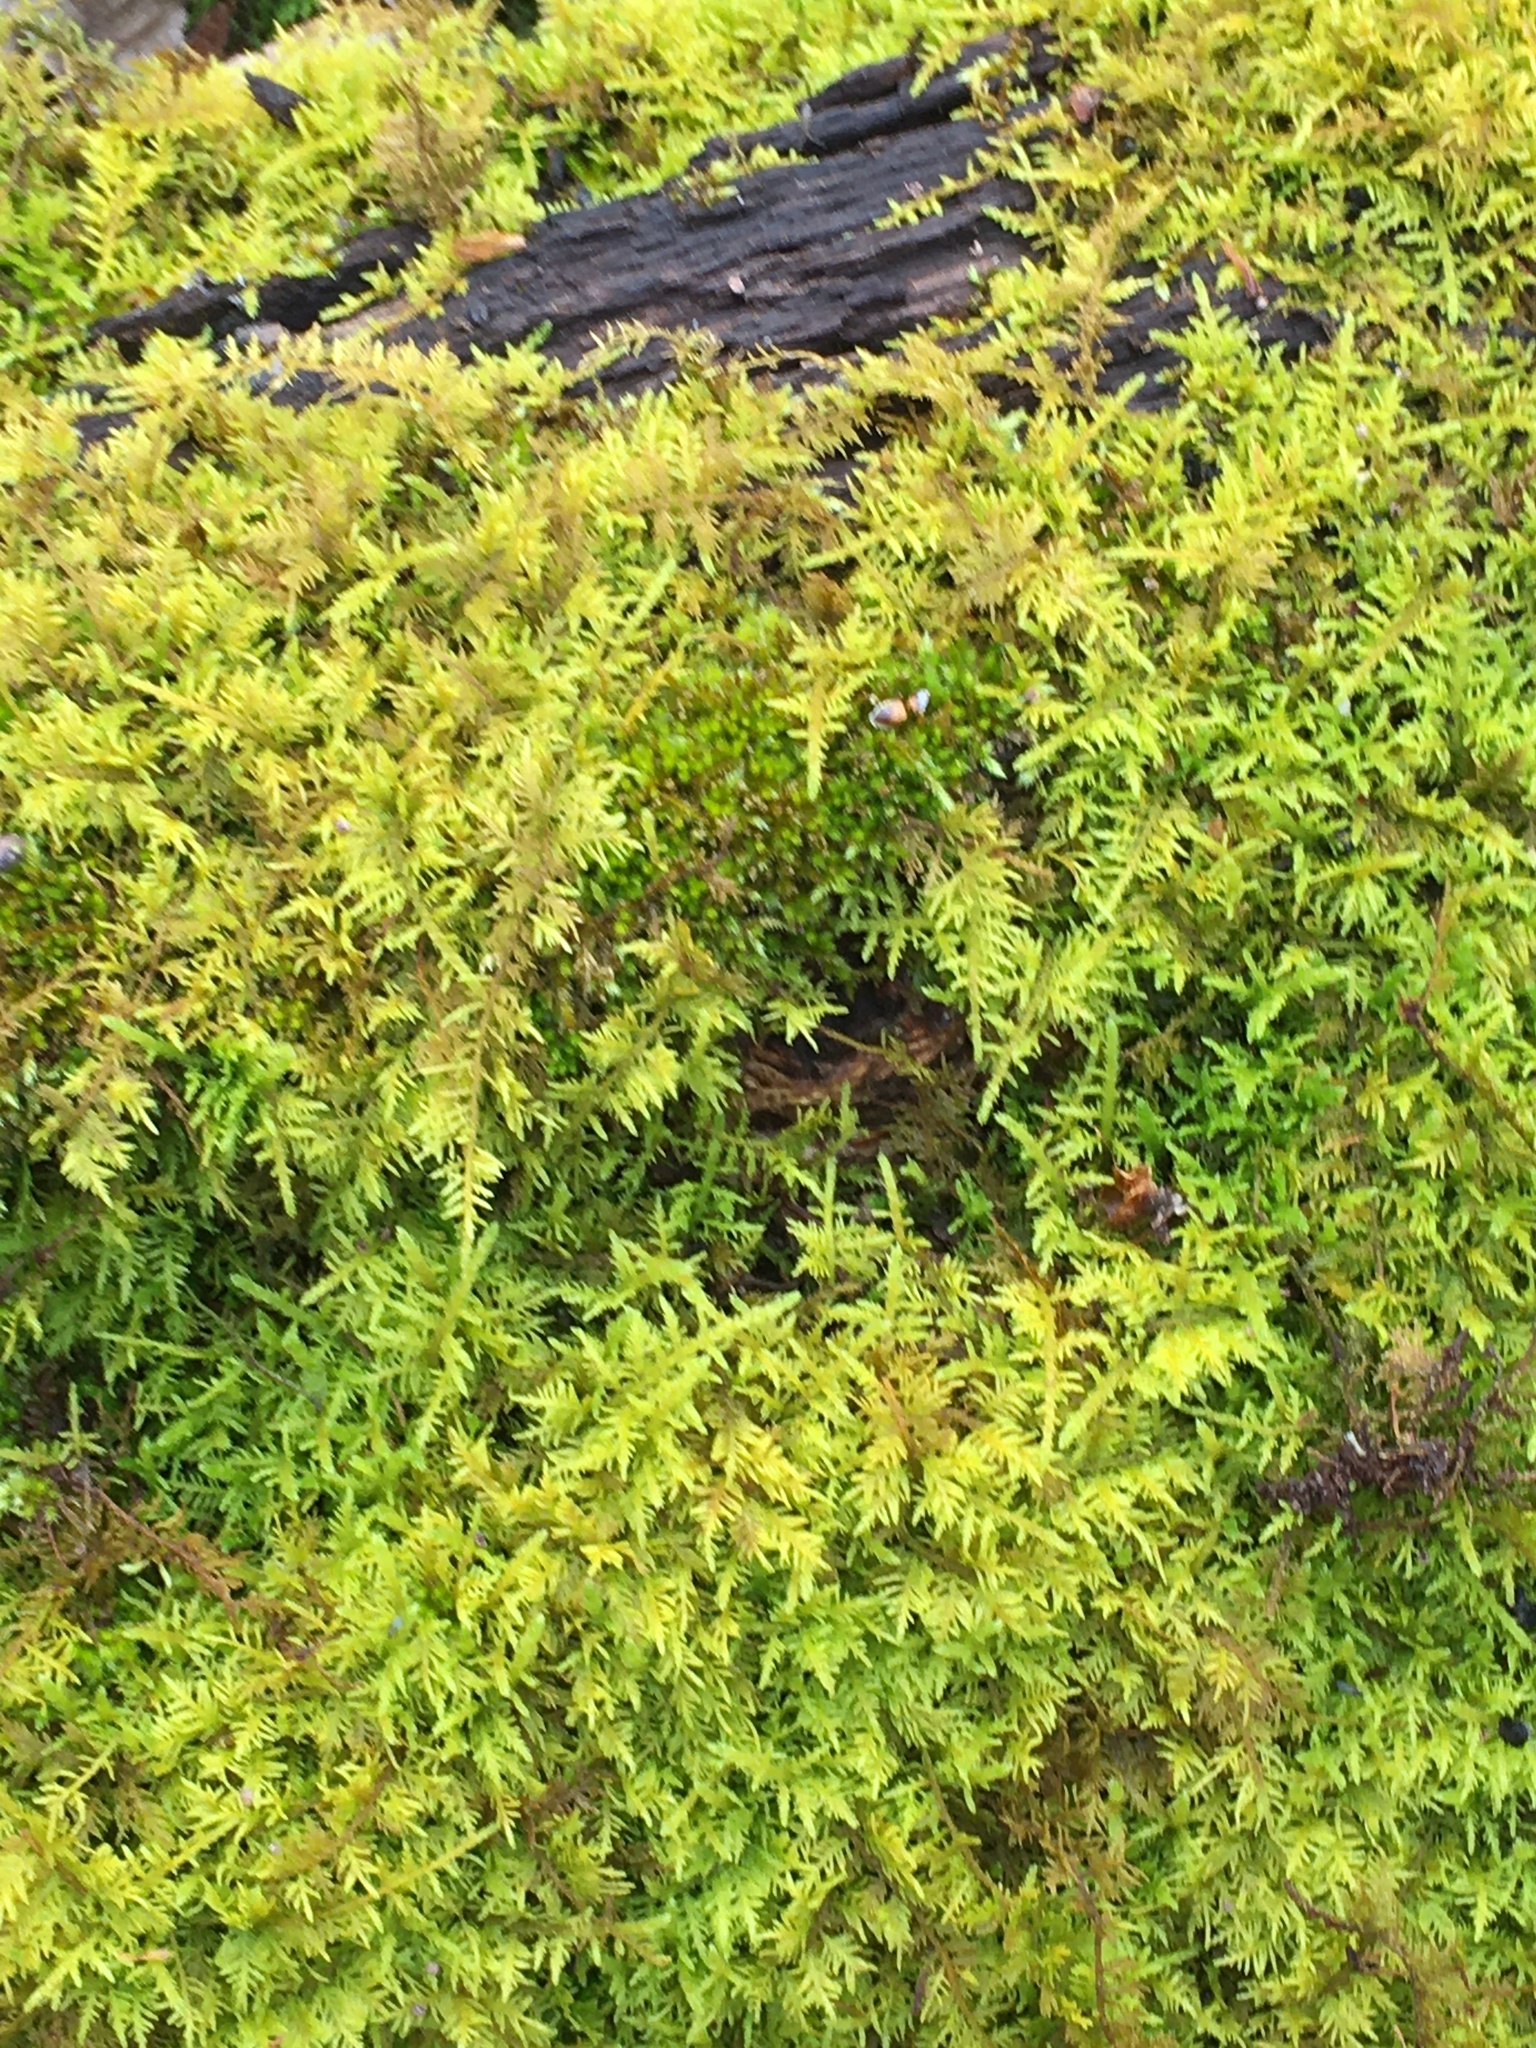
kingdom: Plantae
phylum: Bryophyta
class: Bryopsida
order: Hypnales
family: Thuidiaceae
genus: Thuidium
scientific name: Thuidium delicatulum
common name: Delicate fern moss
